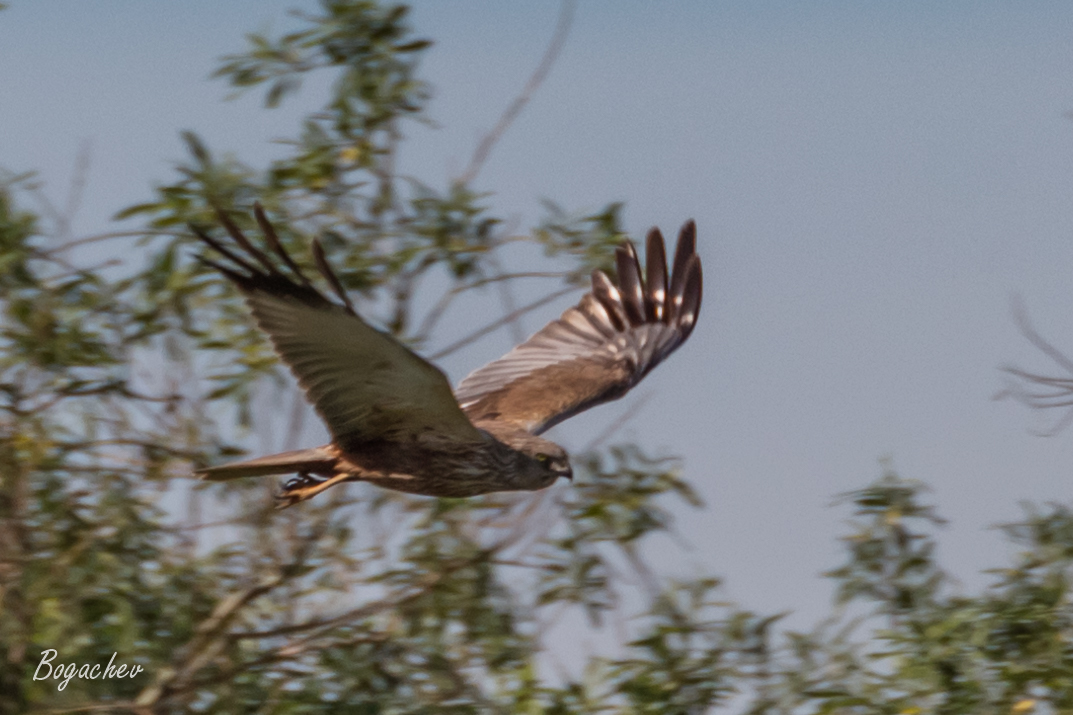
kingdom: Animalia
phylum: Chordata
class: Aves
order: Accipitriformes
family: Accipitridae
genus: Circus
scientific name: Circus aeruginosus
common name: Western marsh harrier
